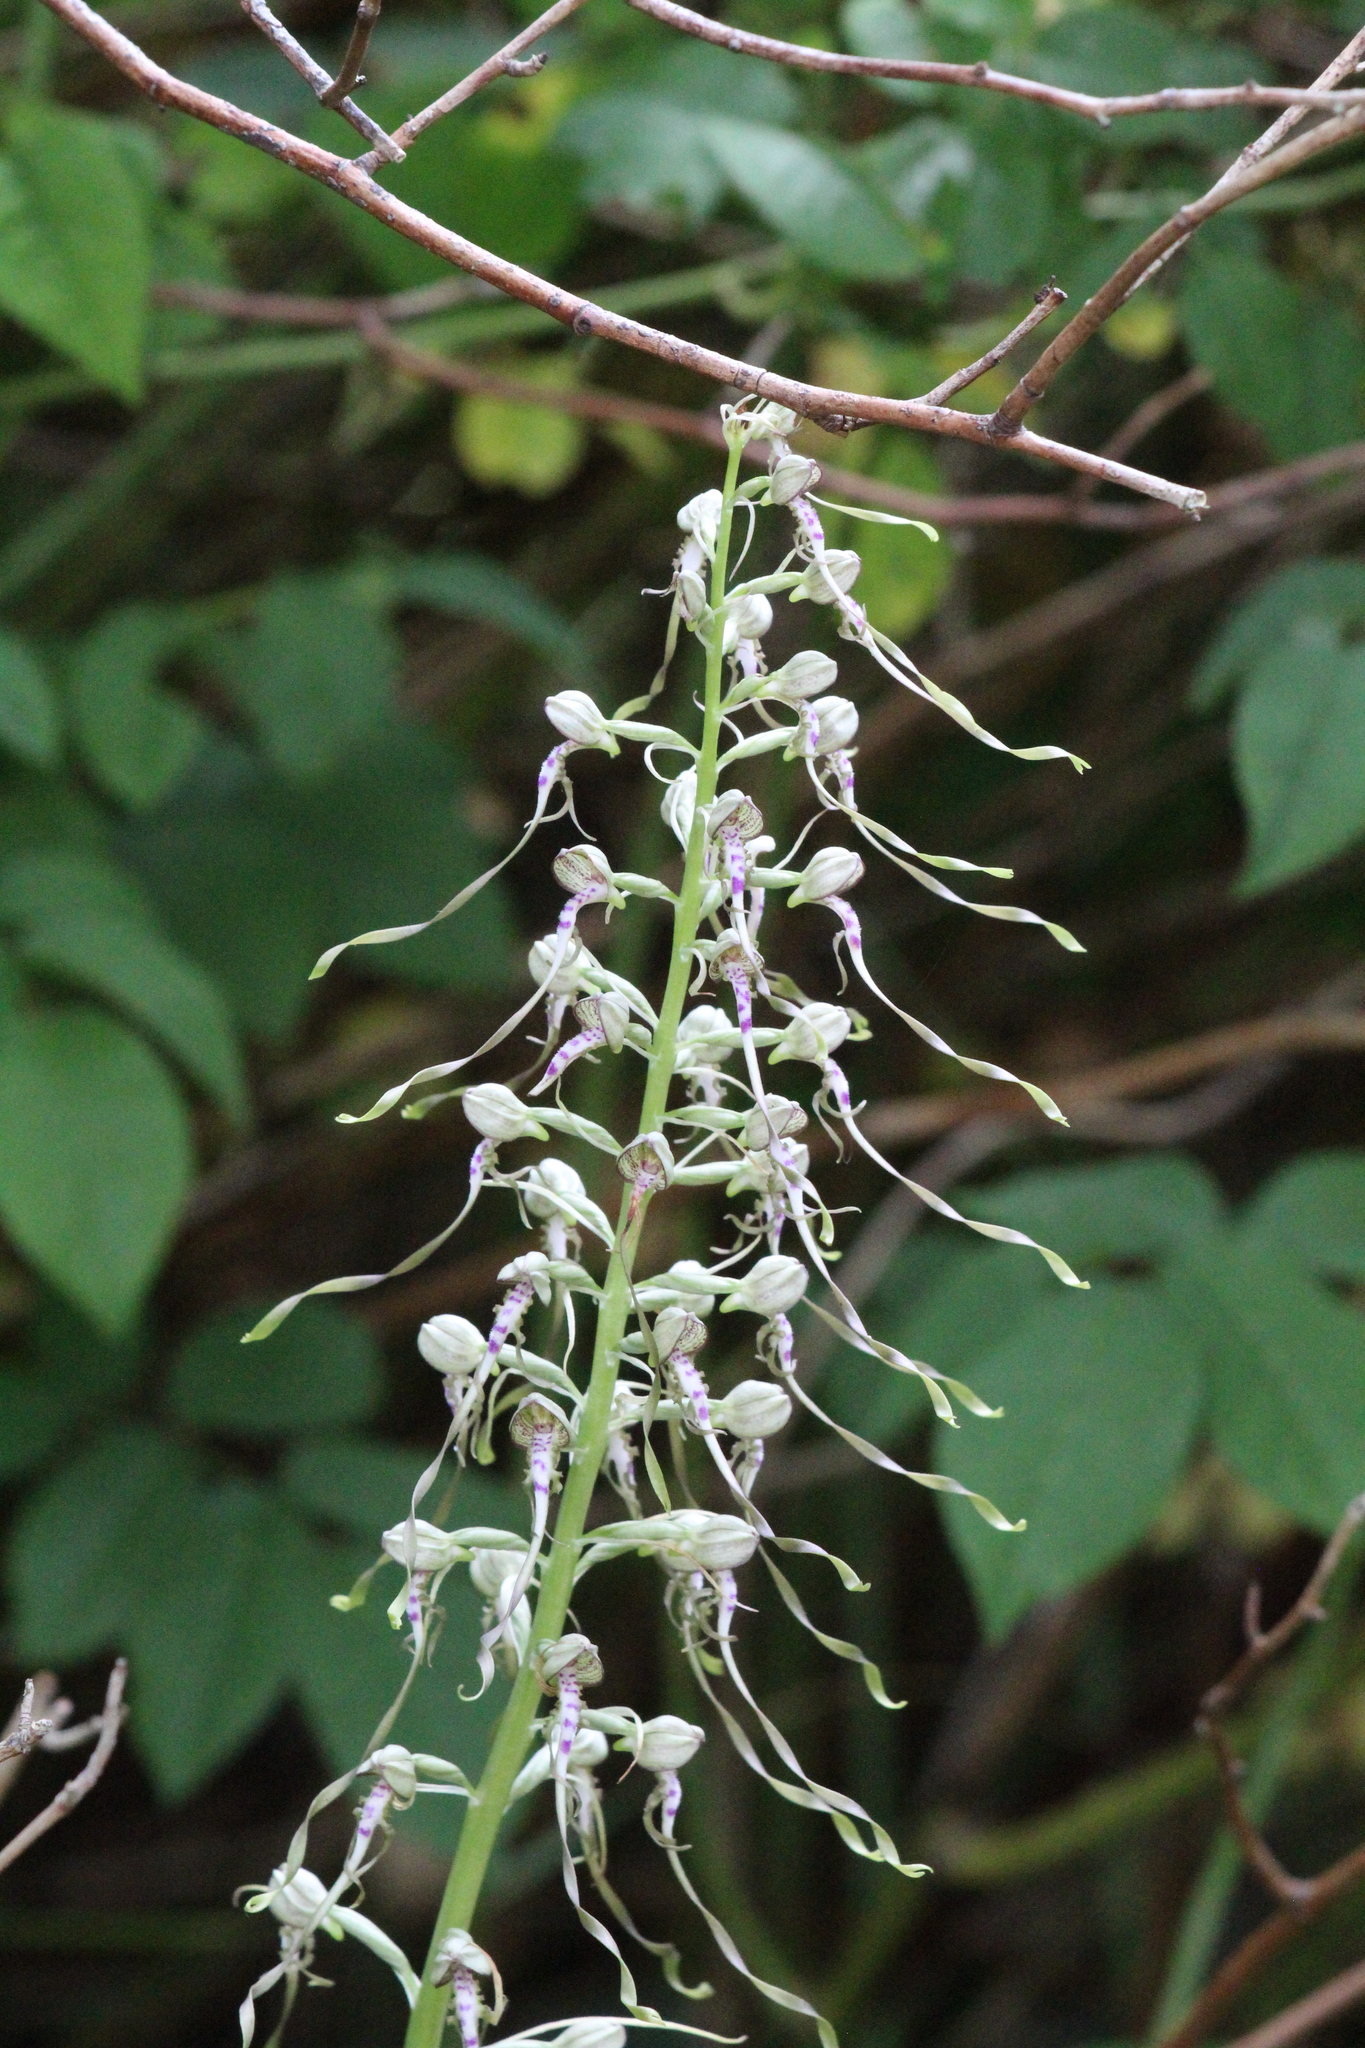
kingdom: Plantae
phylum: Tracheophyta
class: Liliopsida
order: Asparagales
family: Orchidaceae
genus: Himantoglossum
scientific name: Himantoglossum hircinum
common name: Lizard orchid
